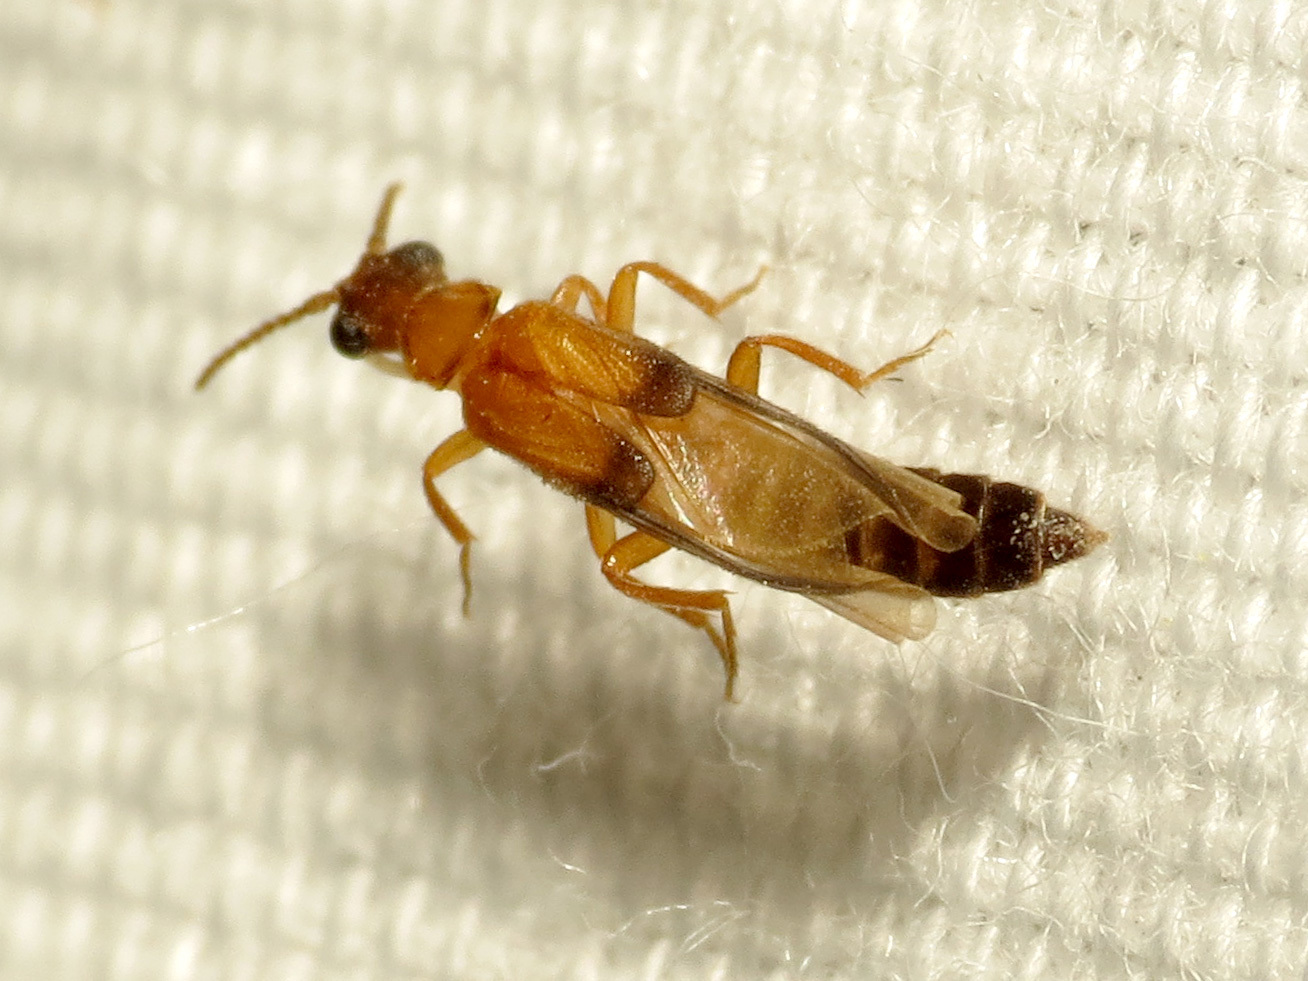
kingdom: Animalia
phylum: Arthropoda
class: Insecta
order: Coleoptera
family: Telegeusidae
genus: Telegeusis
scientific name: Telegeusis nubifer
